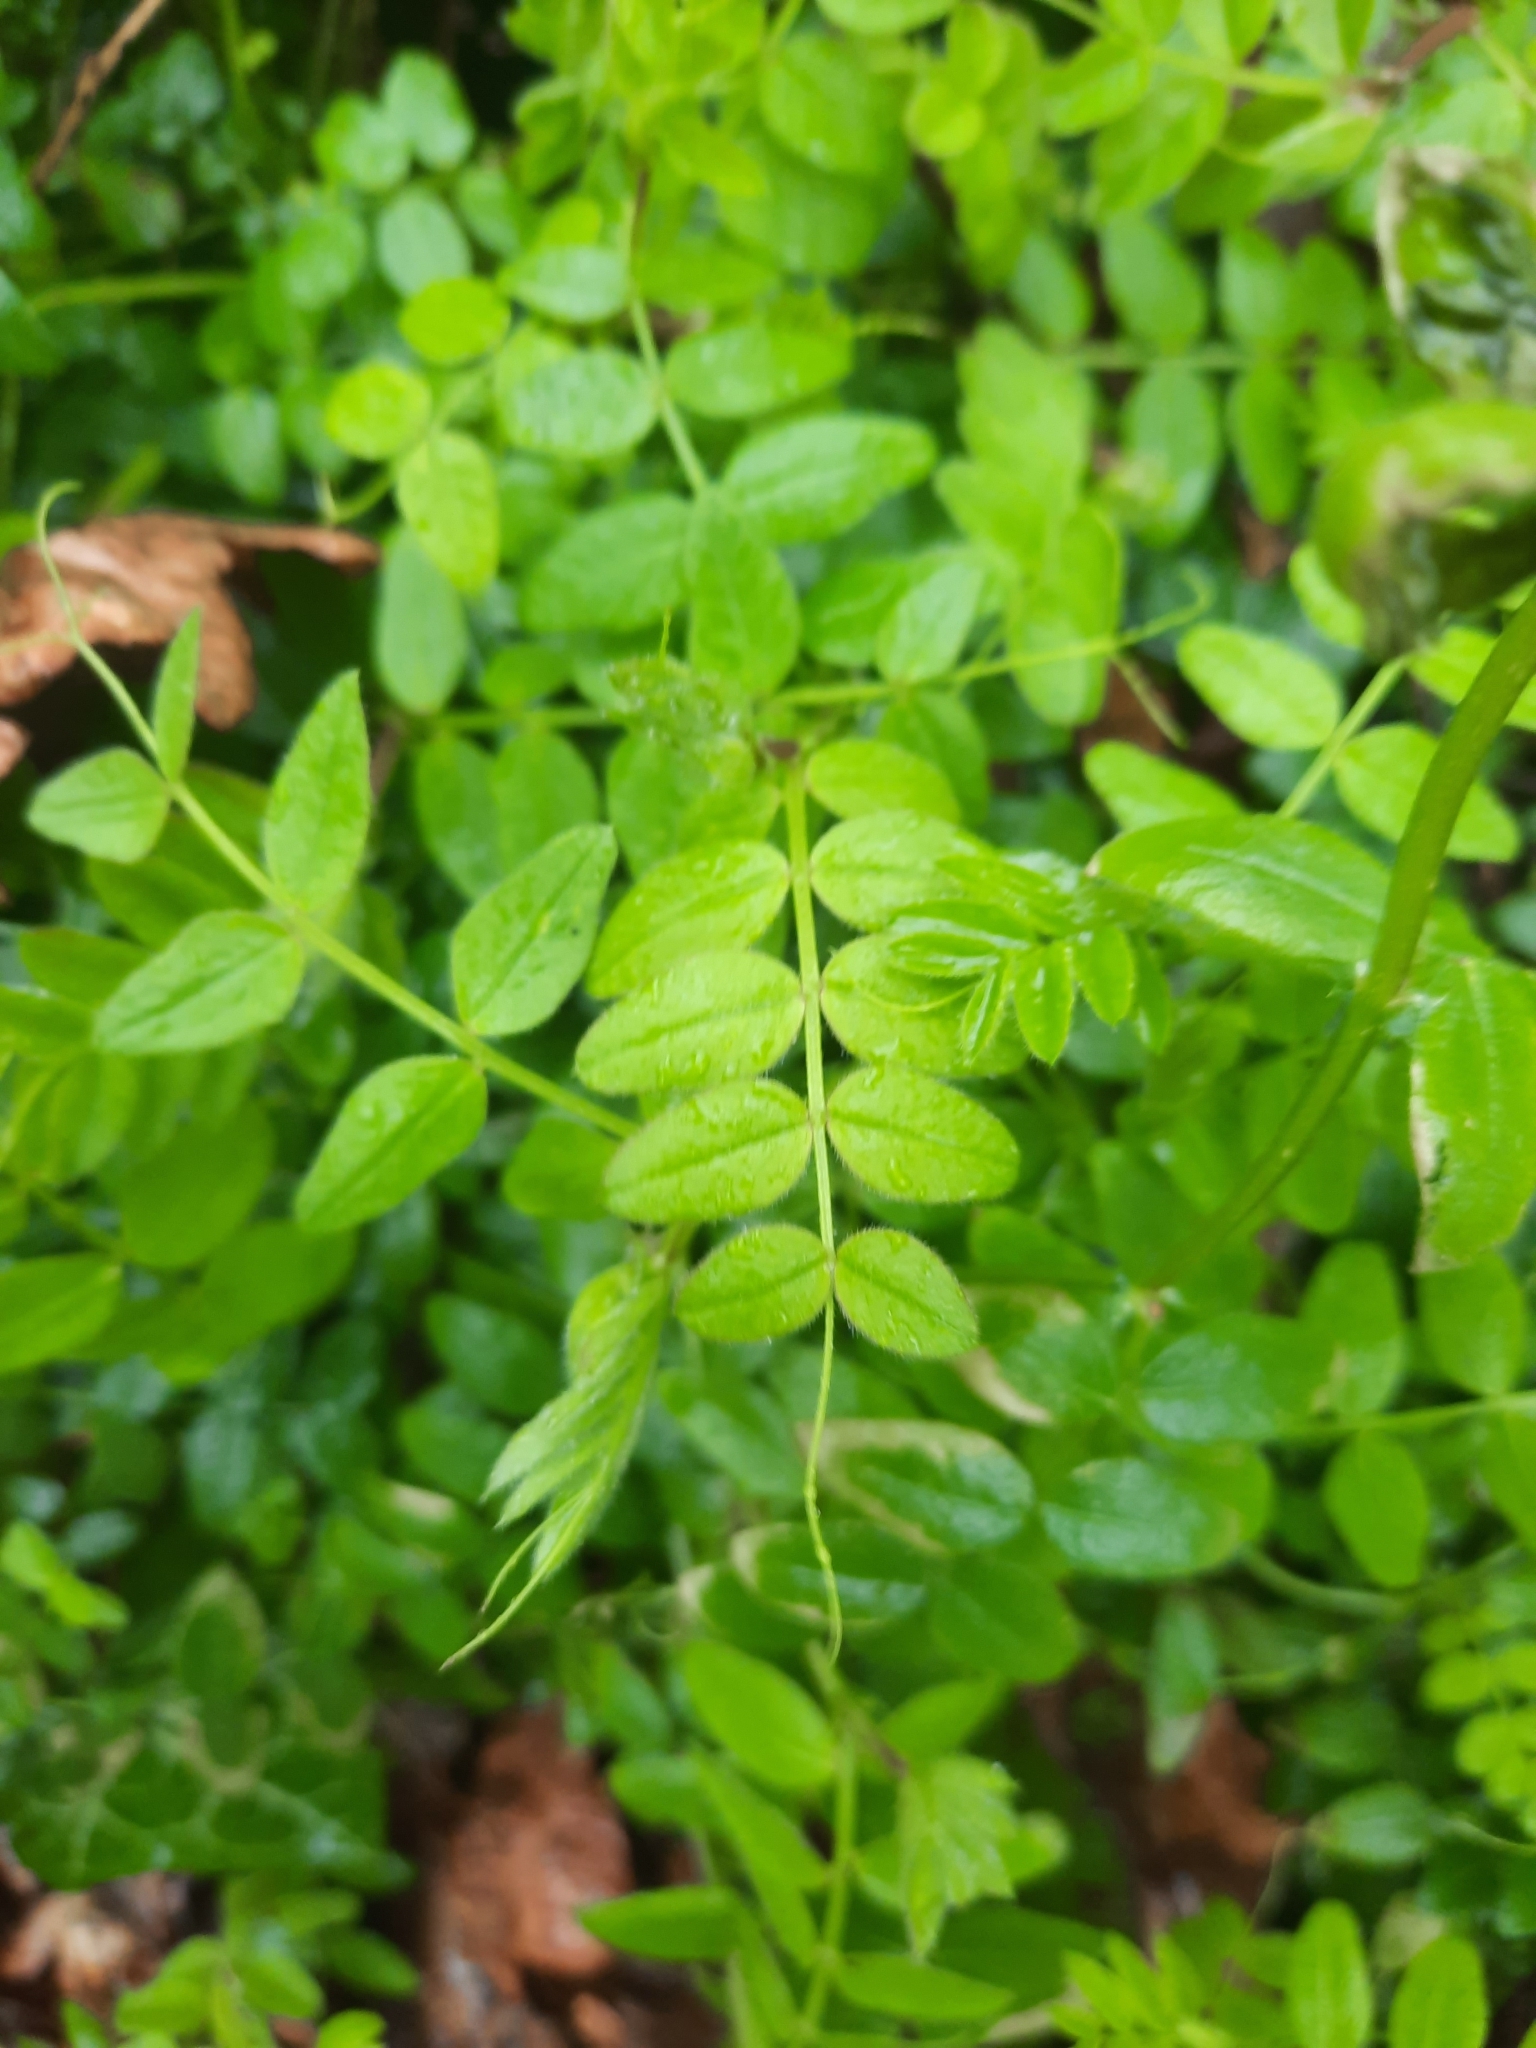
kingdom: Plantae
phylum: Tracheophyta
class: Magnoliopsida
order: Fabales
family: Fabaceae
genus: Vicia
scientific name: Vicia sepium
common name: Bush vetch
